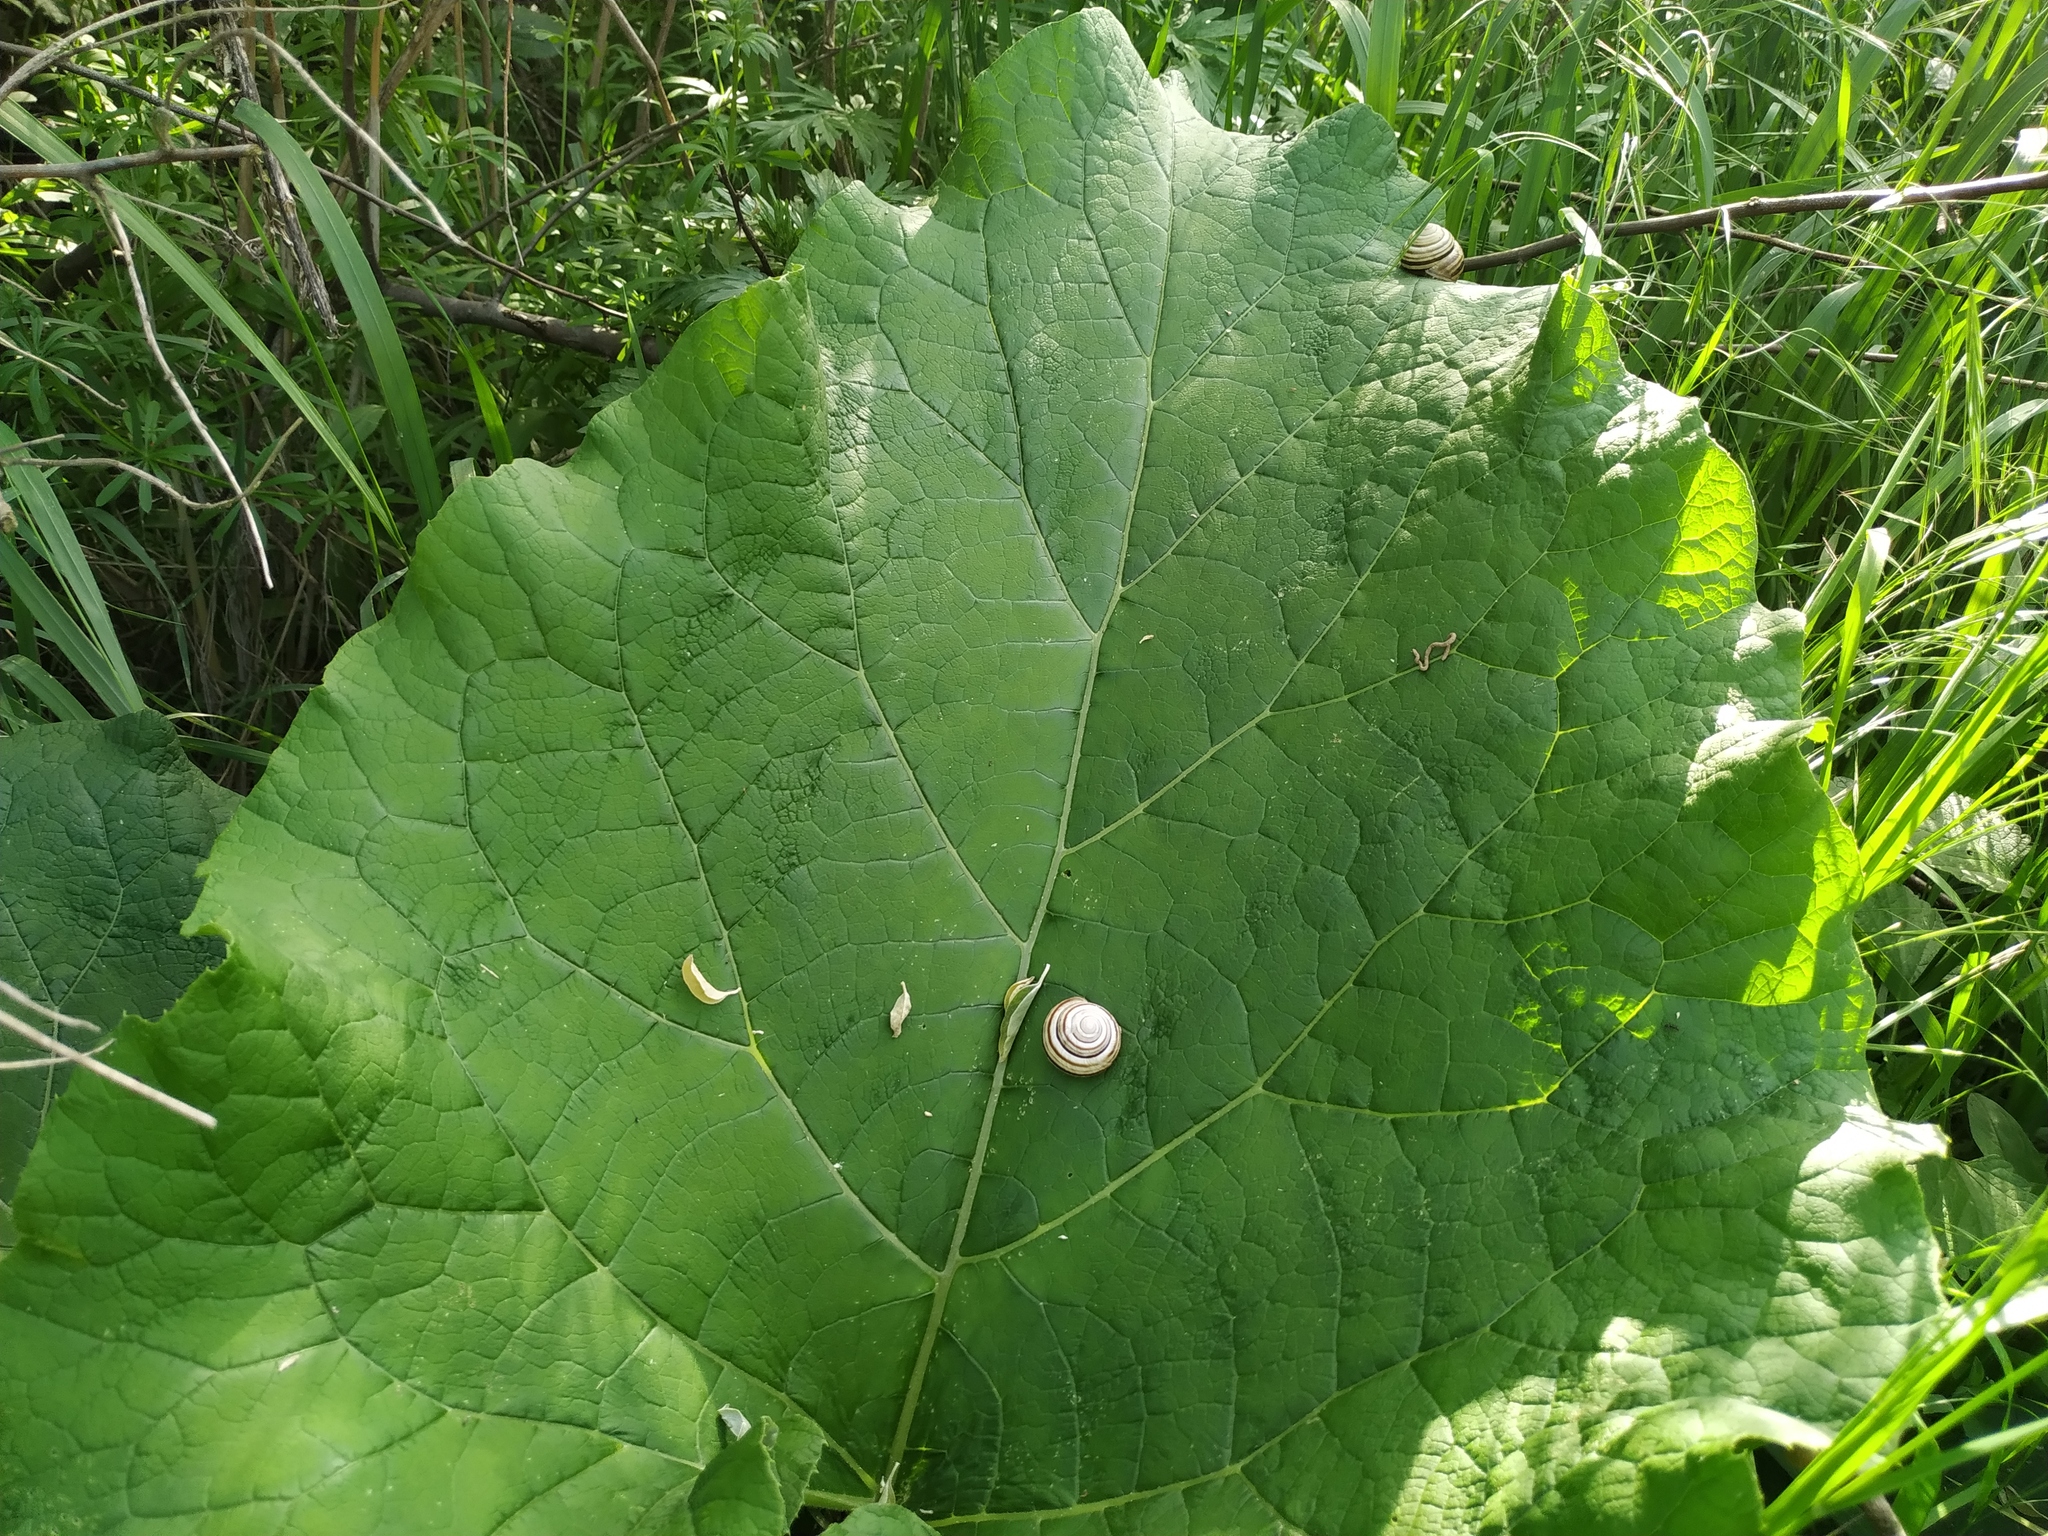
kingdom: Animalia
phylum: Mollusca
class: Gastropoda
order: Stylommatophora
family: Helicidae
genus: Caucasotachea
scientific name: Caucasotachea vindobonensis
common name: European helicid land snail
